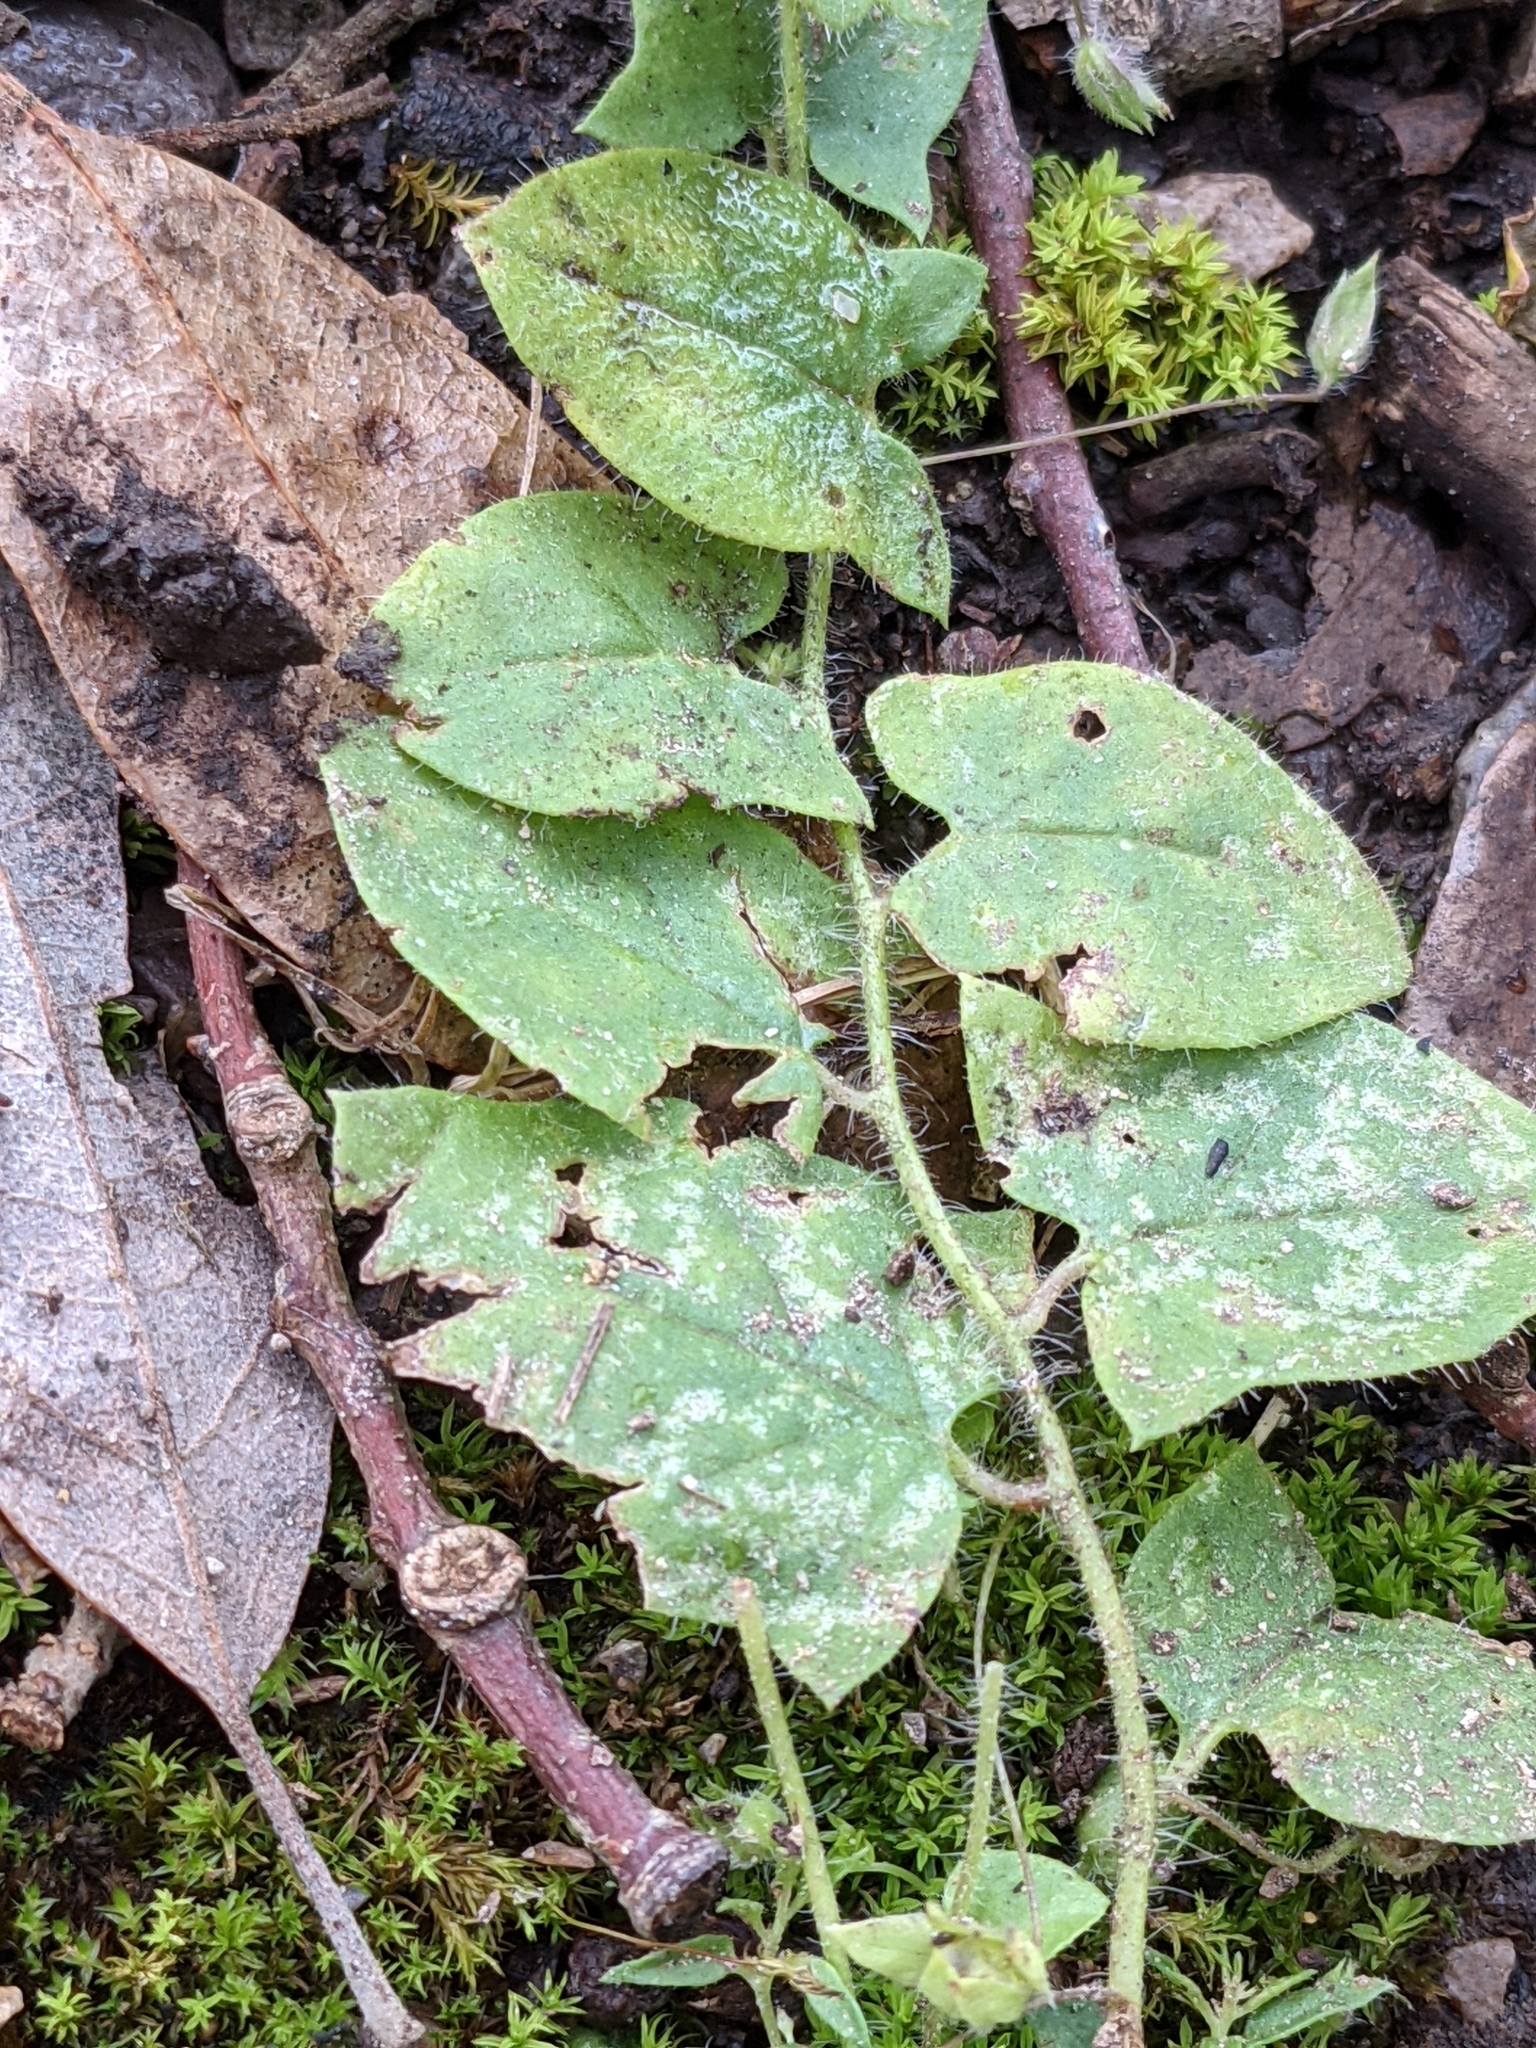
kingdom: Plantae
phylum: Tracheophyta
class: Magnoliopsida
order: Lamiales
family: Plantaginaceae
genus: Kickxia
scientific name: Kickxia elatine
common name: Sharp-leaved fluellen
